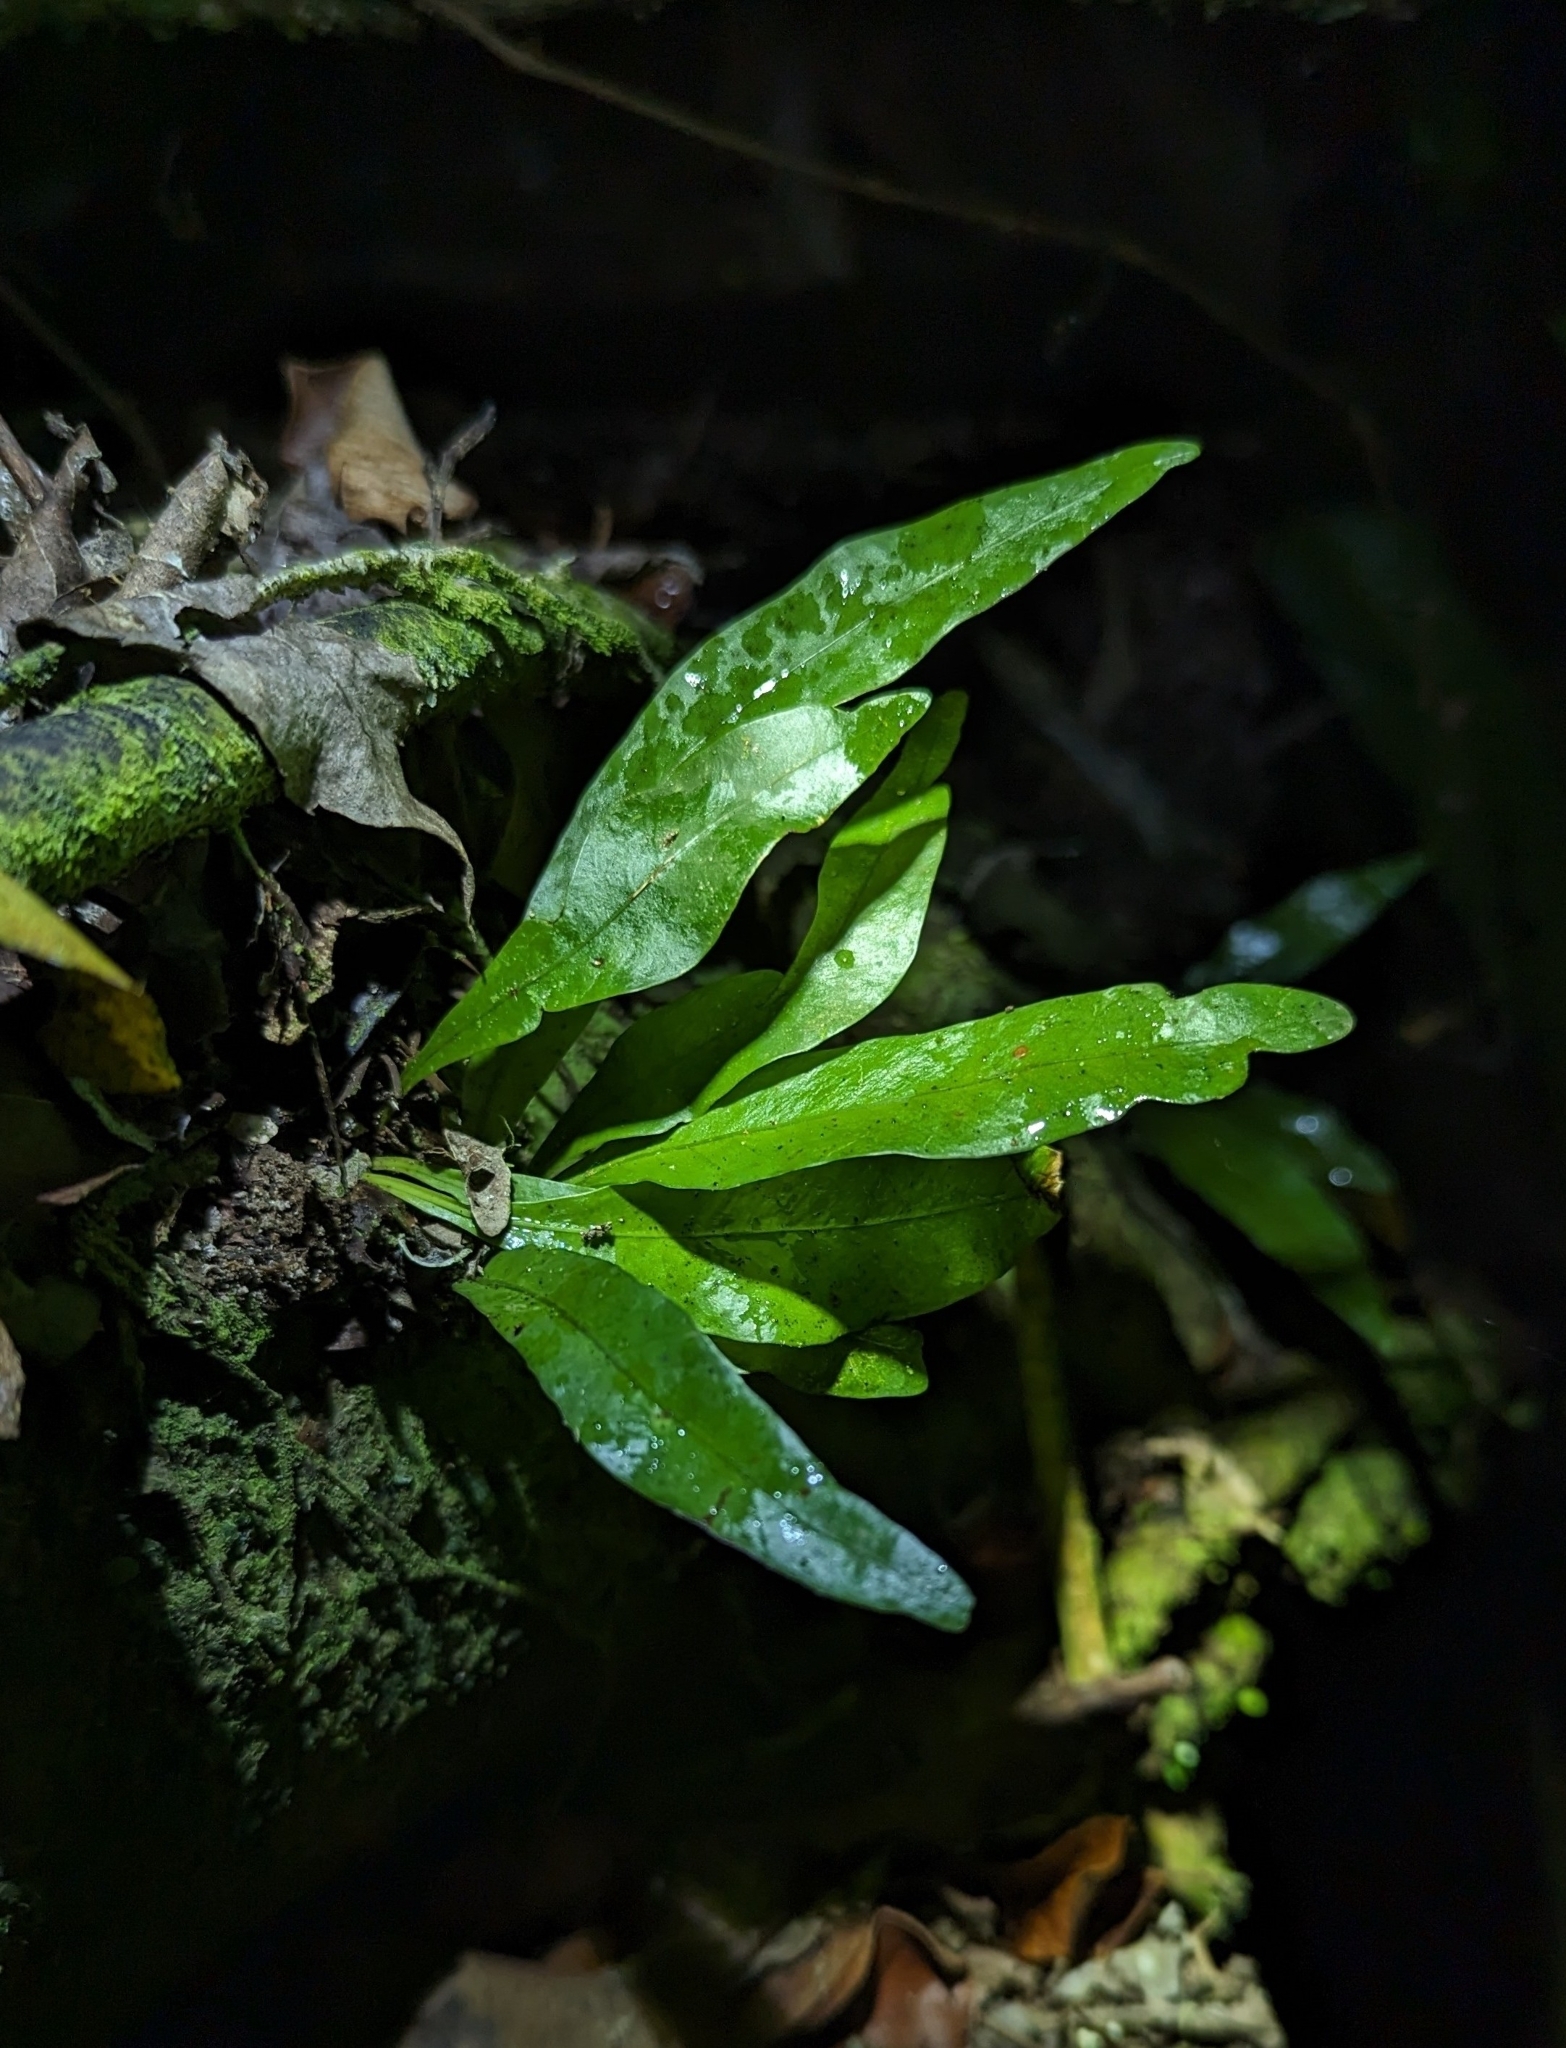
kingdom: Plantae
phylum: Tracheophyta
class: Polypodiopsida
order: Polypodiales
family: Polypodiaceae
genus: Campyloneurum
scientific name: Campyloneurum phyllitidis
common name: Cow-tongue fern
